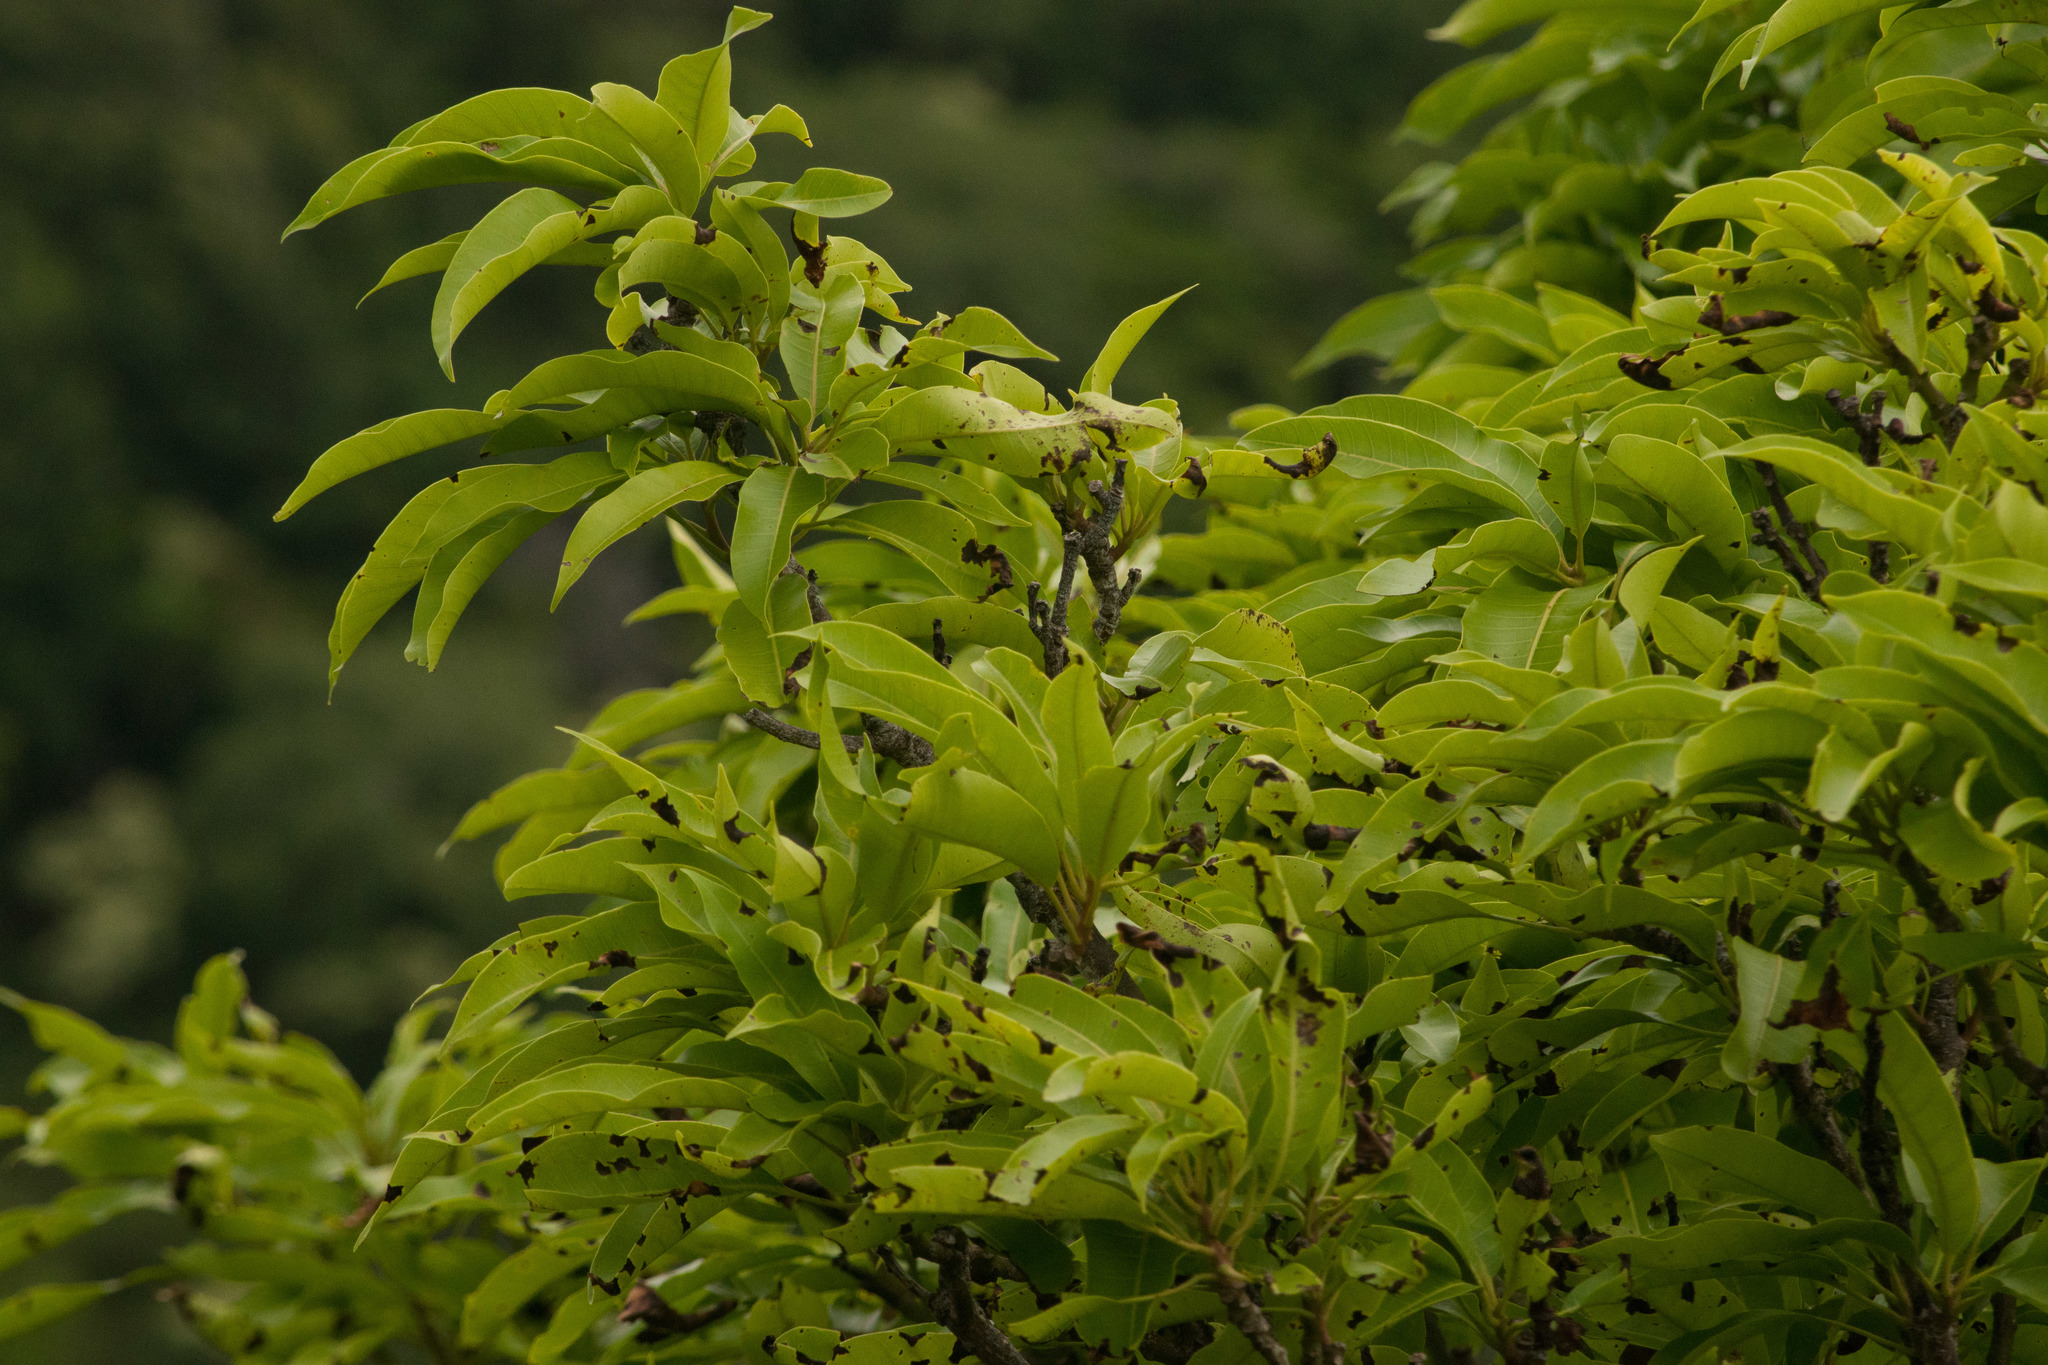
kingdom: Plantae
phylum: Tracheophyta
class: Magnoliopsida
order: Sapindales
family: Anacardiaceae
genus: Mangifera
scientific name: Mangifera indica
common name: Mango
